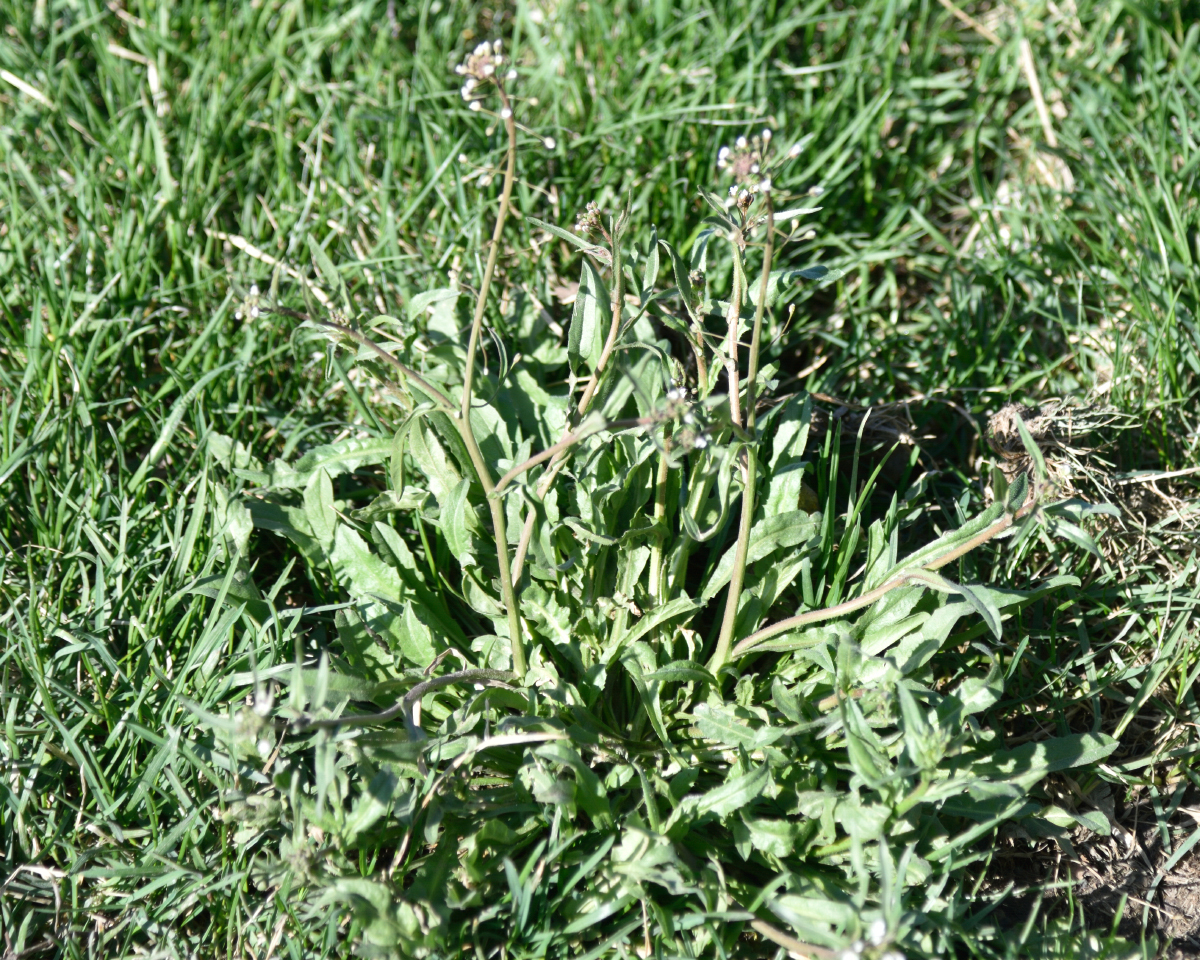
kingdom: Plantae
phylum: Tracheophyta
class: Magnoliopsida
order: Brassicales
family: Brassicaceae
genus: Capsella
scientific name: Capsella bursa-pastoris
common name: Shepherd's purse
